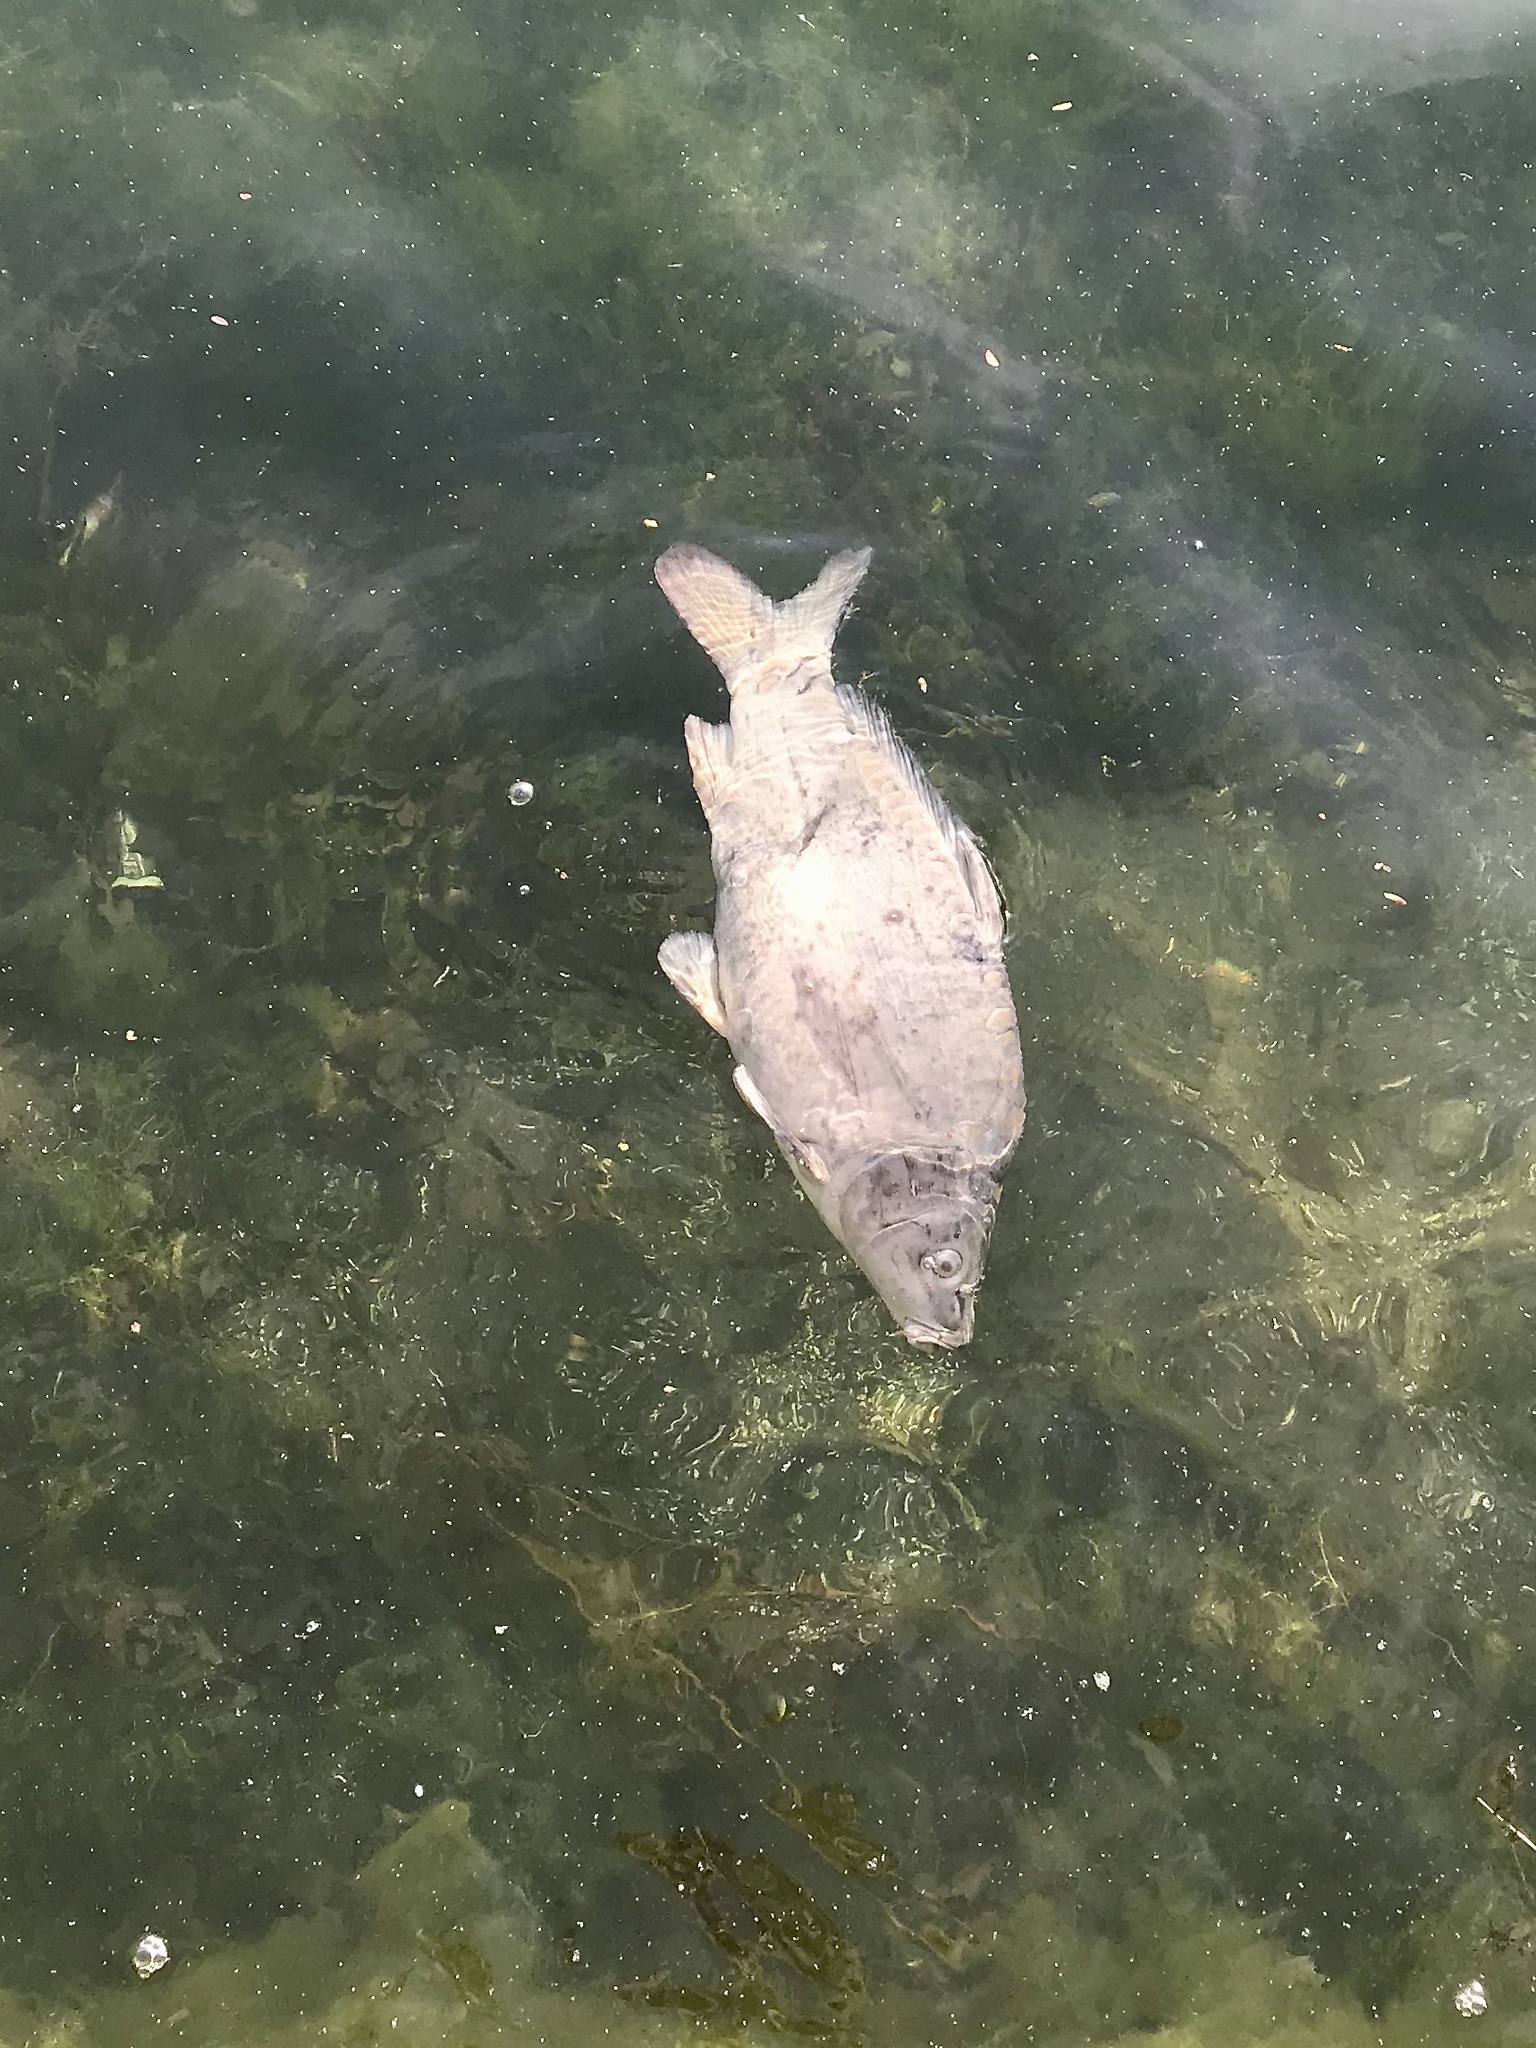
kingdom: Animalia
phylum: Chordata
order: Cypriniformes
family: Cyprinidae
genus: Cyprinus
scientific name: Cyprinus carpio
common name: Common carp
